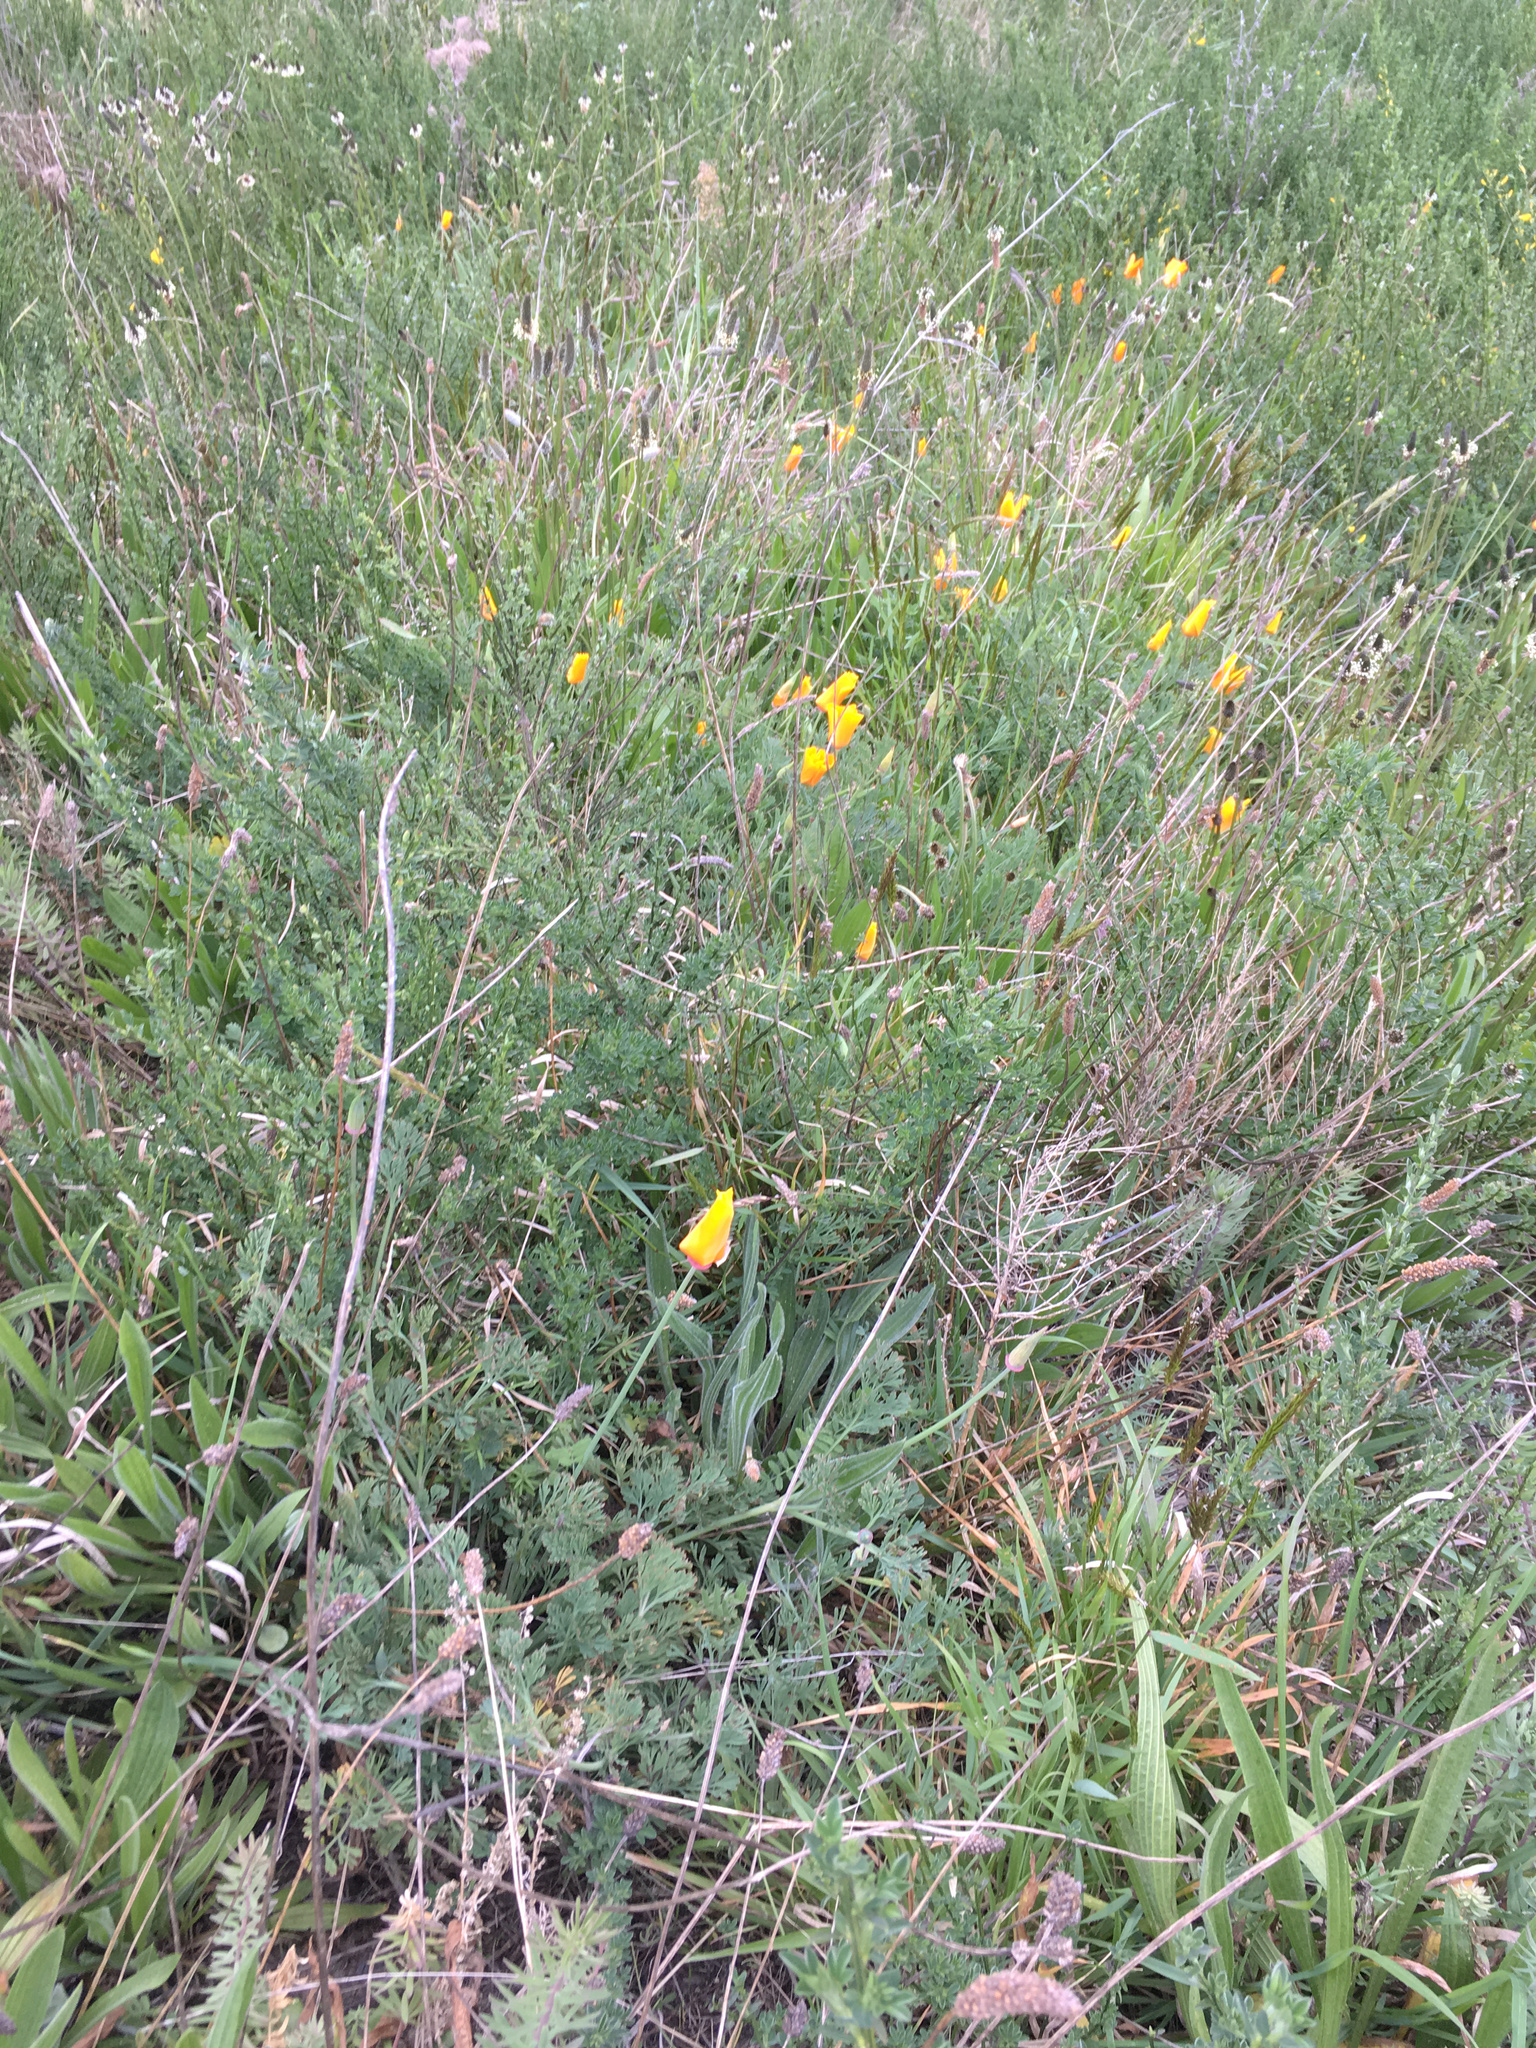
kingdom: Plantae
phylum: Tracheophyta
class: Magnoliopsida
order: Ranunculales
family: Papaveraceae
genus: Eschscholzia
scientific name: Eschscholzia californica
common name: California poppy
